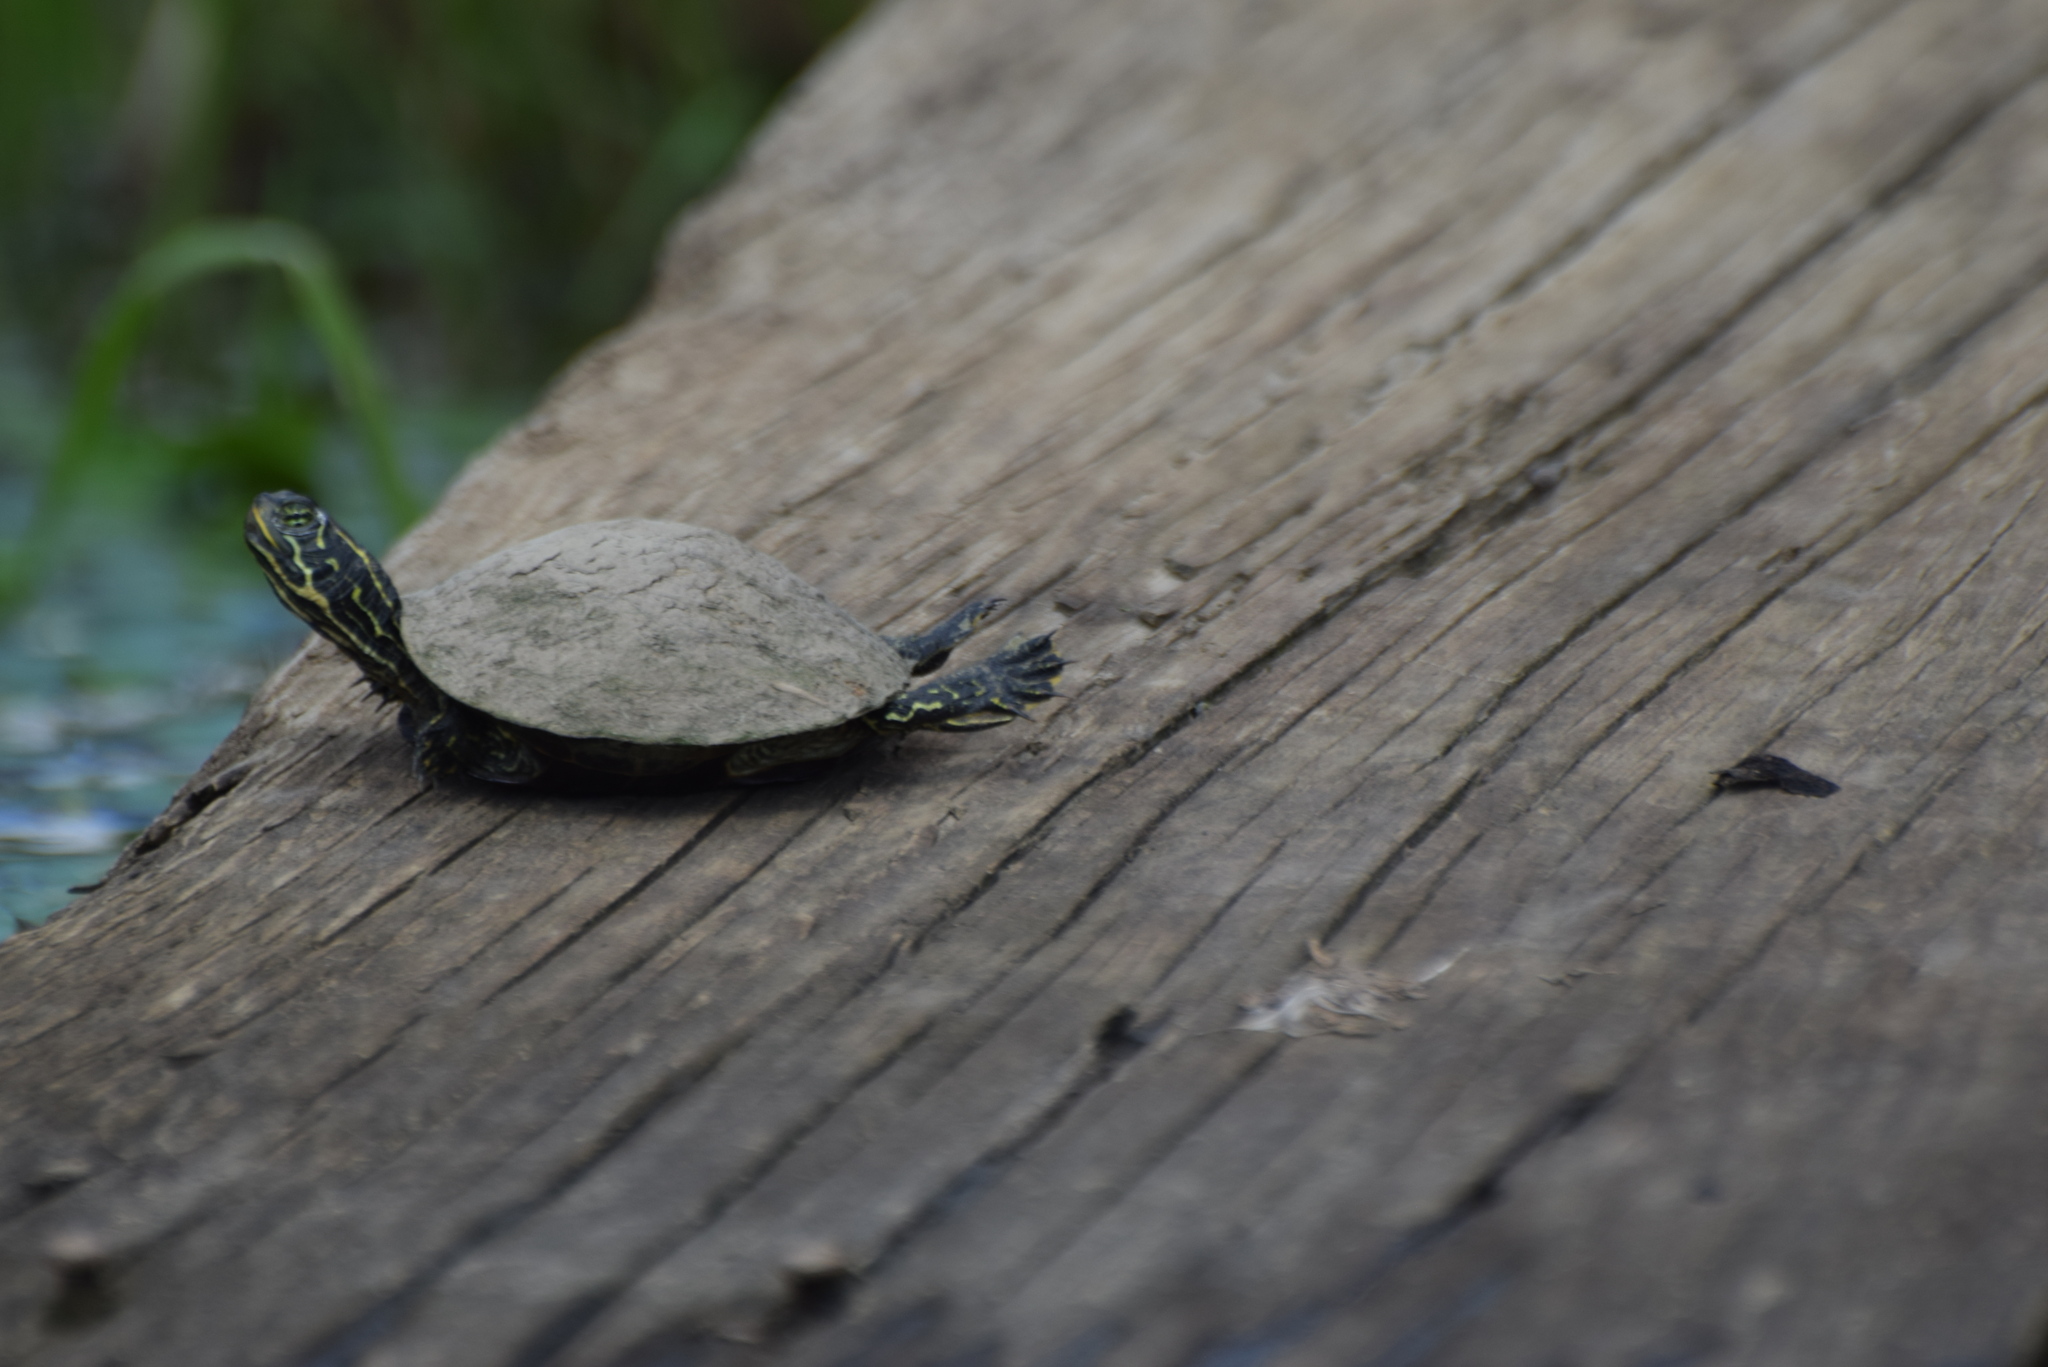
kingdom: Animalia
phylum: Chordata
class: Testudines
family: Emydidae
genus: Pseudemys
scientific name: Pseudemys rubriventris
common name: American red-bellied turtle
